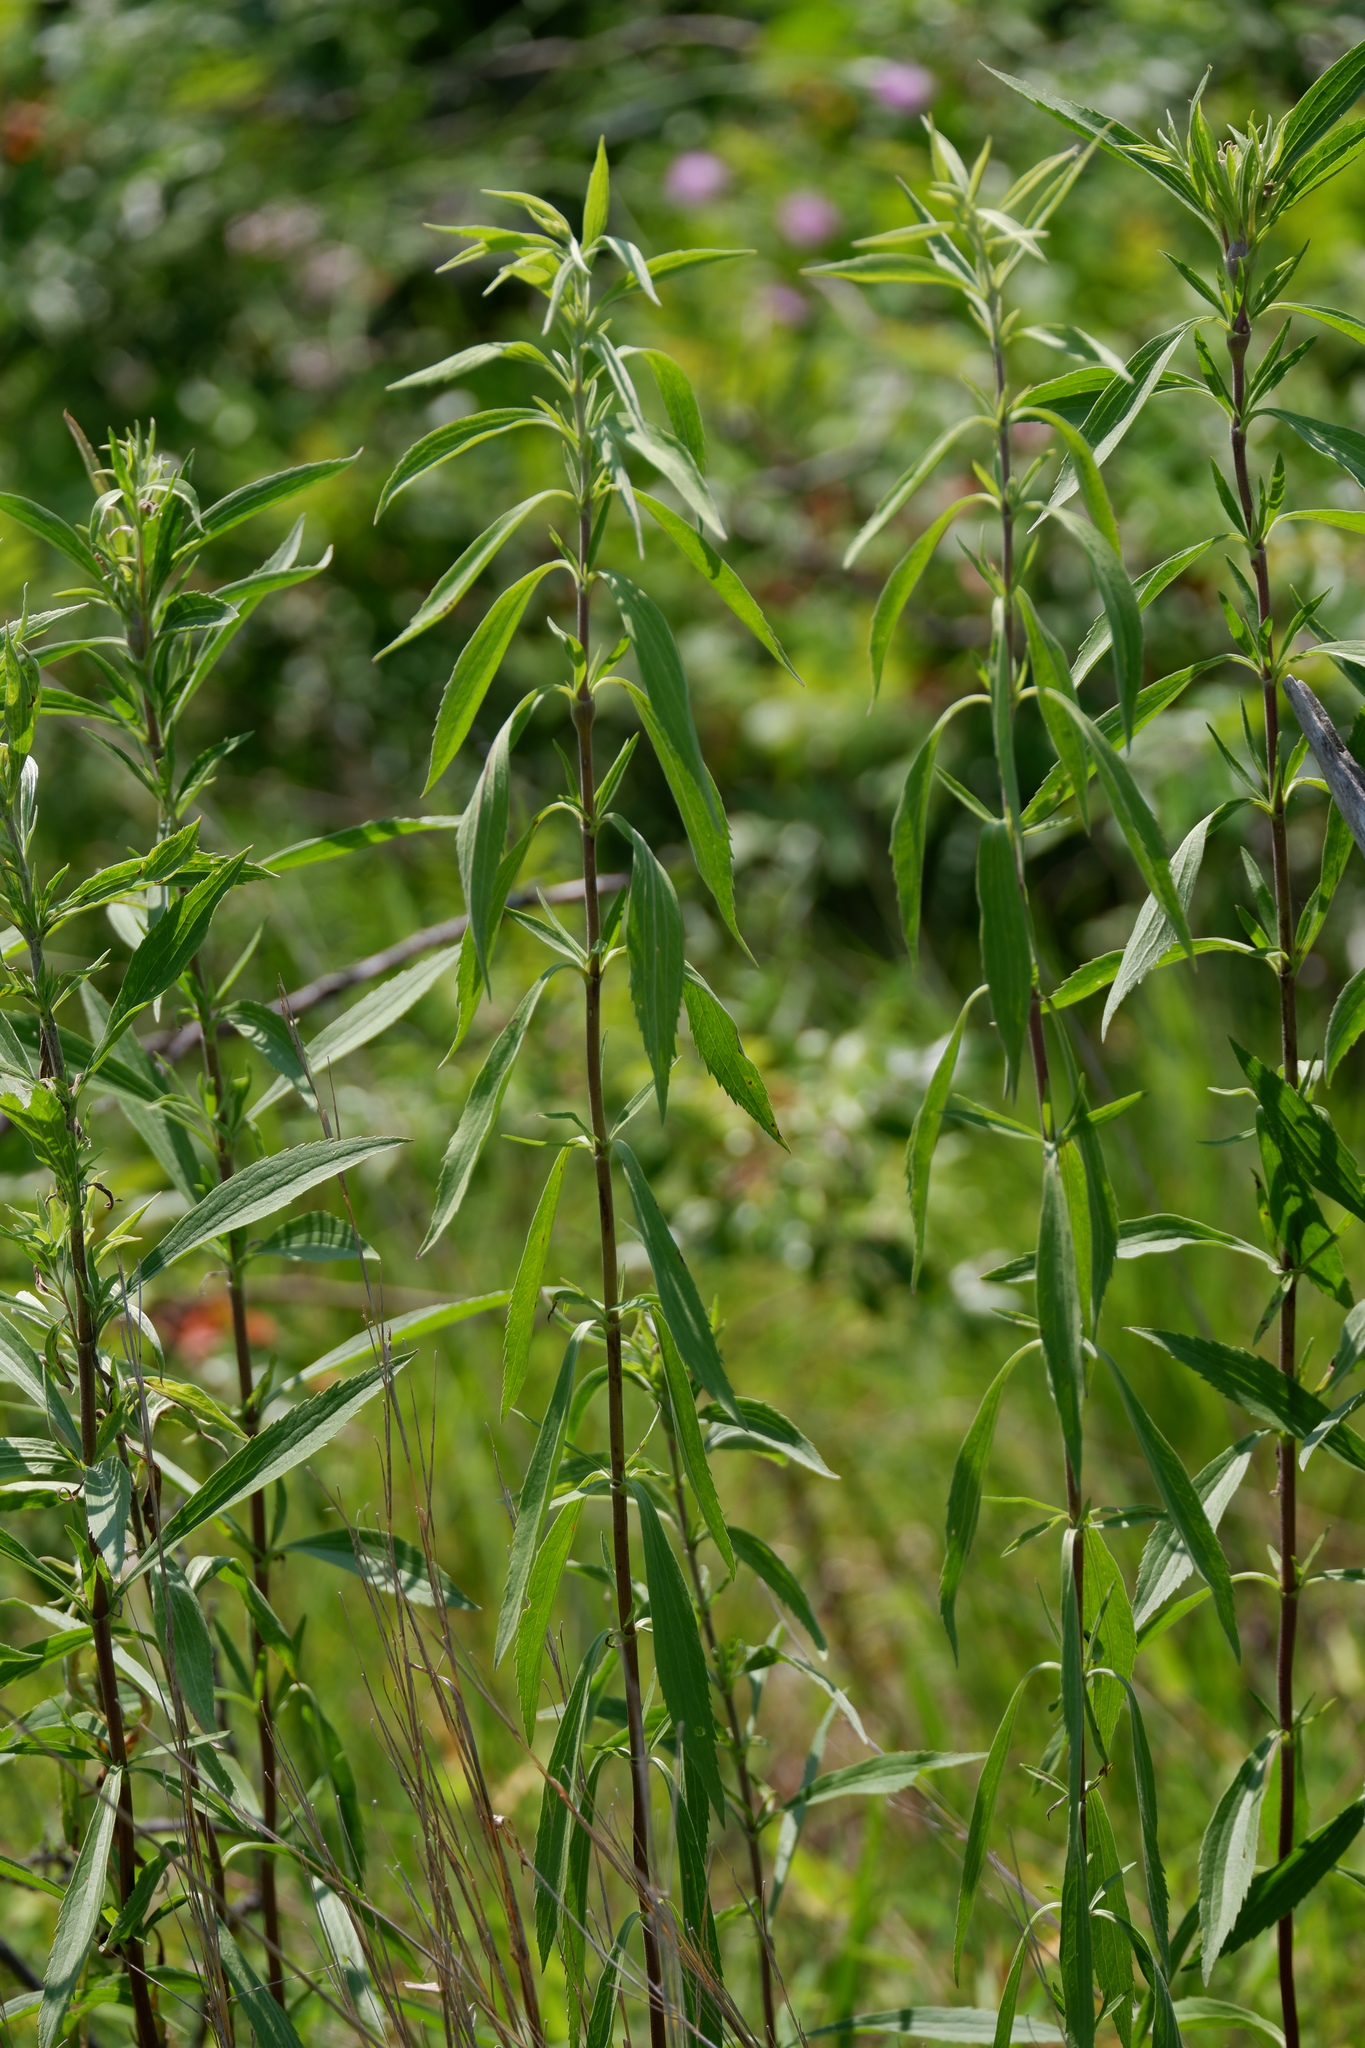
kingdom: Plantae
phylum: Tracheophyta
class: Magnoliopsida
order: Asterales
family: Asteraceae
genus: Eupatorium
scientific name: Eupatorium altissimum
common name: Tall thoroughwort
